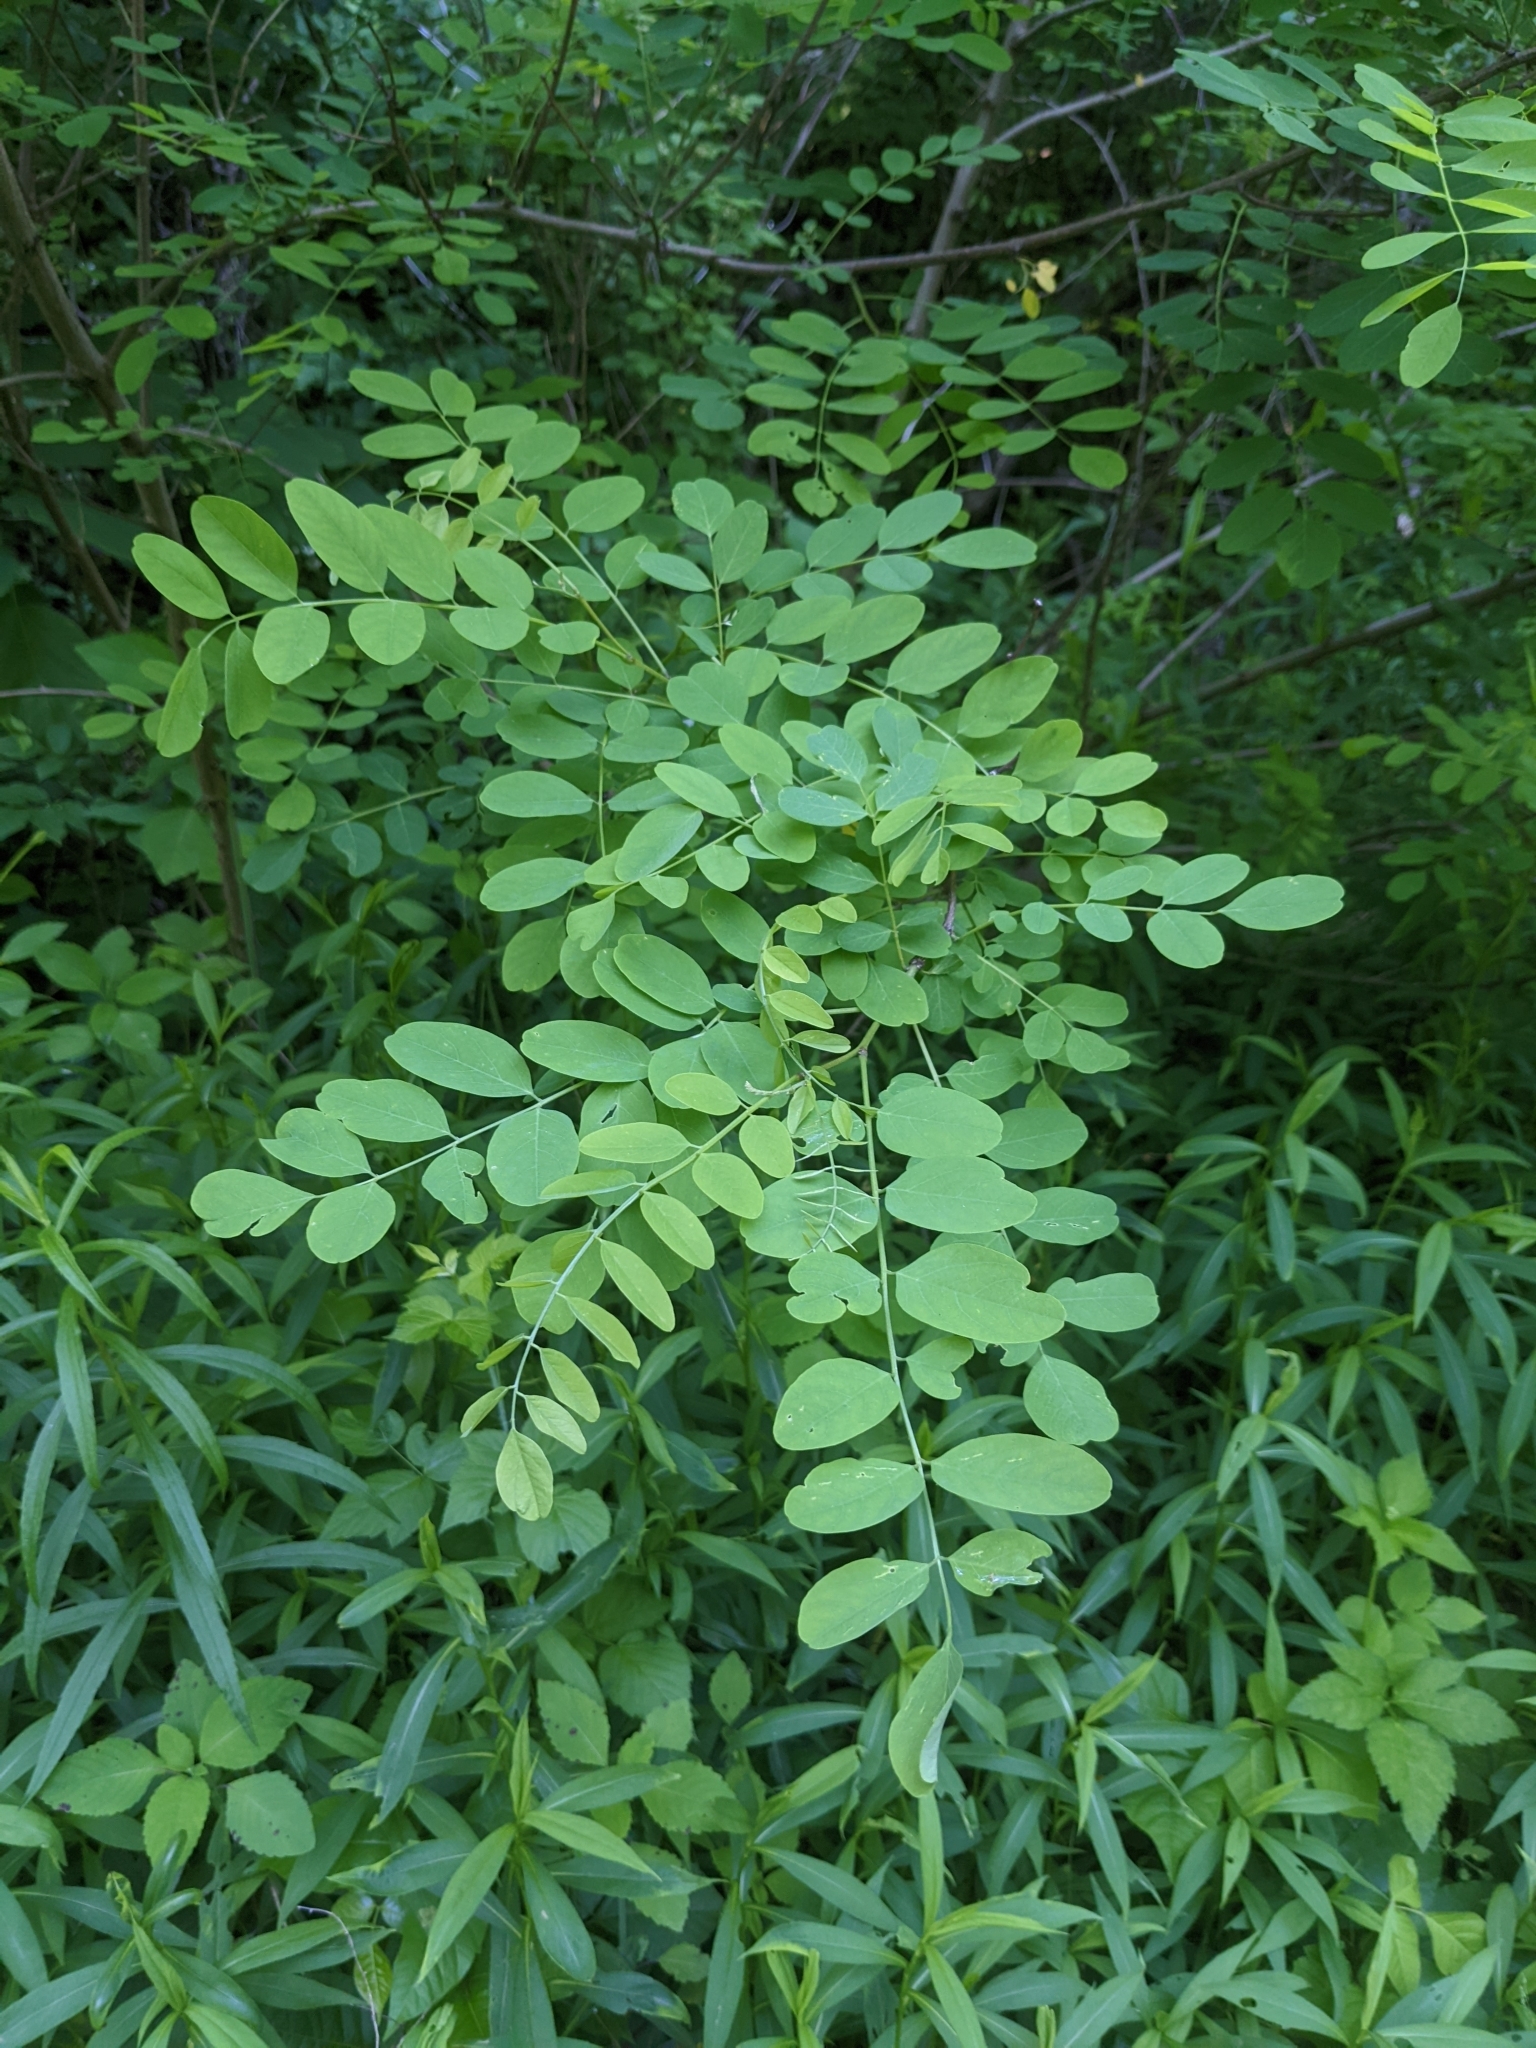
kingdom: Plantae
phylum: Tracheophyta
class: Magnoliopsida
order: Fabales
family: Fabaceae
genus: Robinia
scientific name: Robinia pseudoacacia
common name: Black locust
